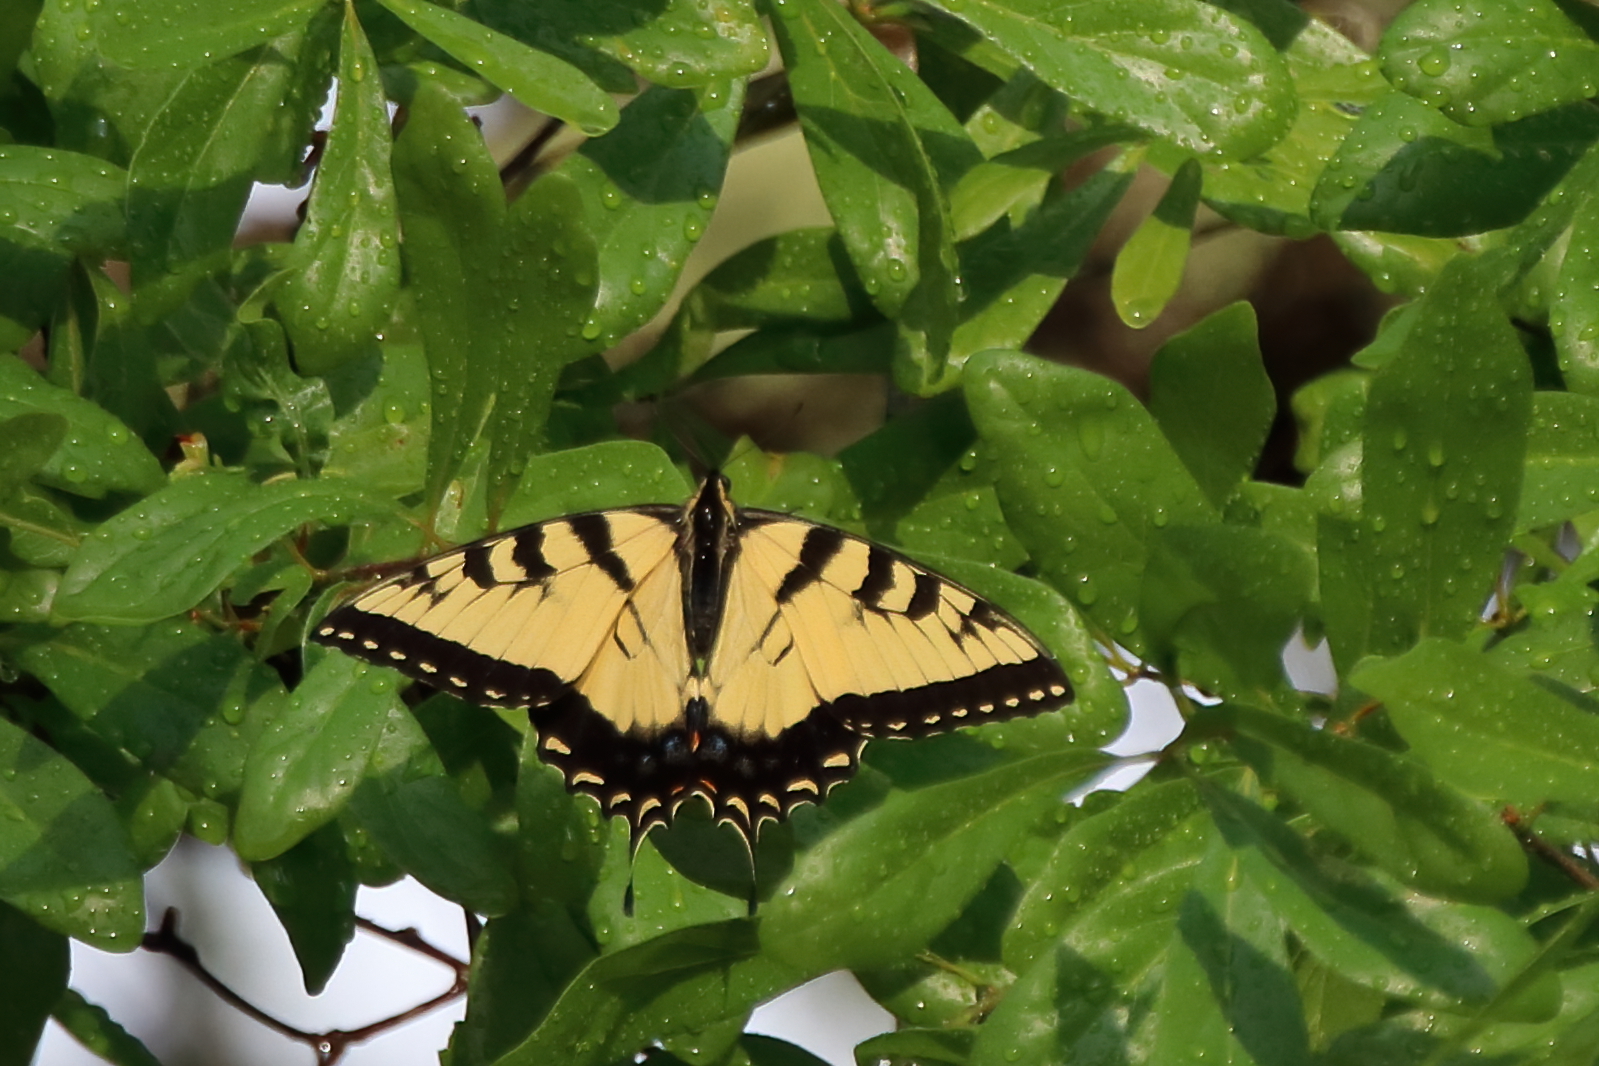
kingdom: Animalia
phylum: Arthropoda
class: Insecta
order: Lepidoptera
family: Papilionidae
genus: Papilio
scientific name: Papilio glaucus
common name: Tiger swallowtail
